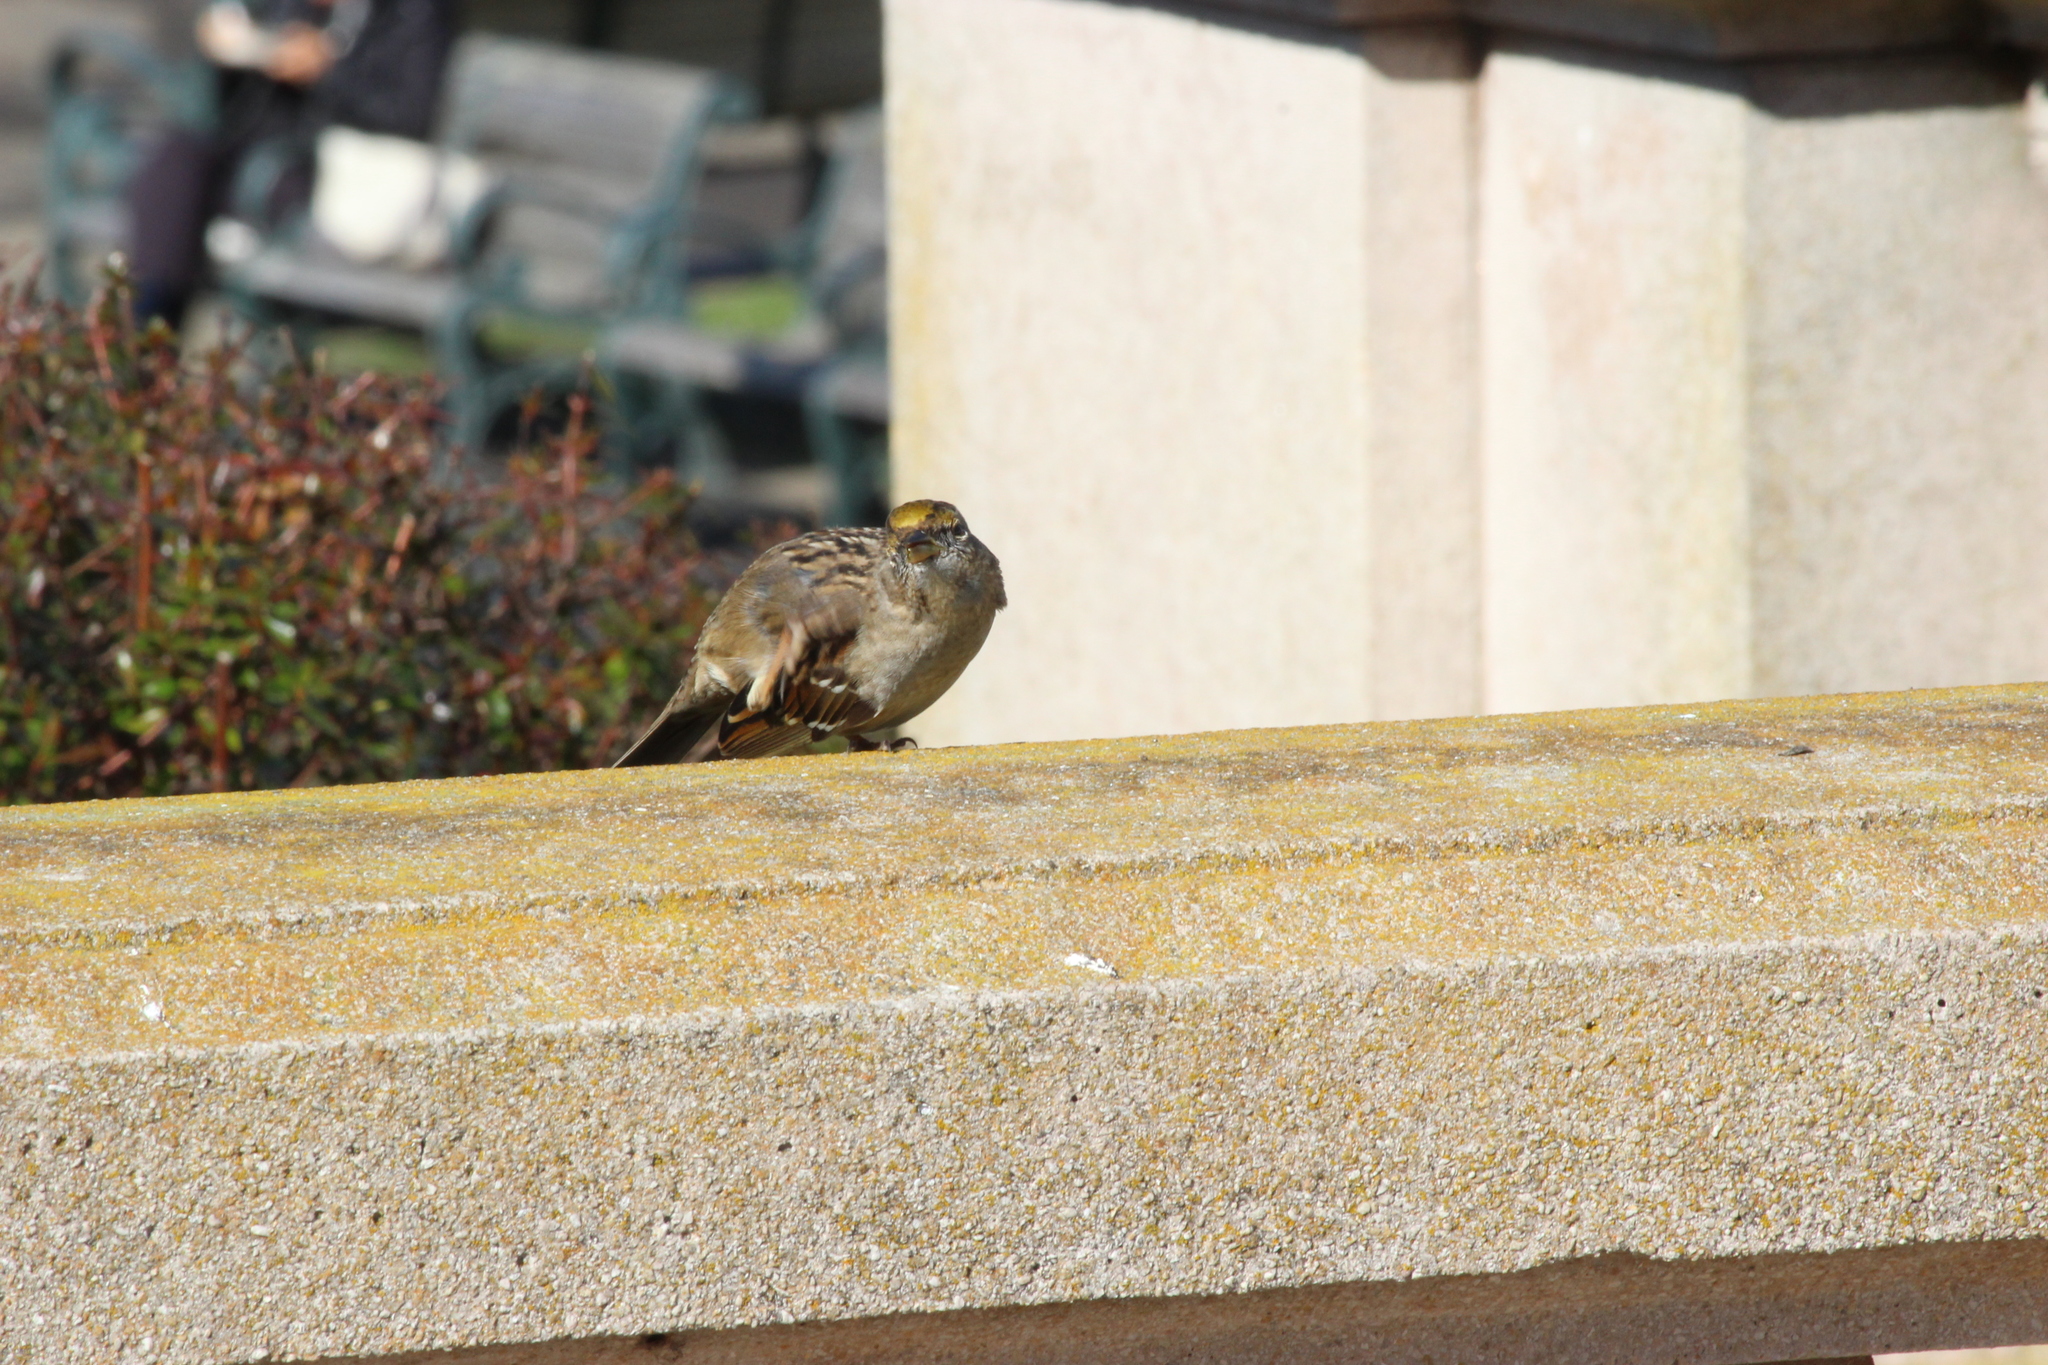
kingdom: Animalia
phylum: Chordata
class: Aves
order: Passeriformes
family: Passerellidae
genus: Zonotrichia
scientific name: Zonotrichia atricapilla
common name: Golden-crowned sparrow
